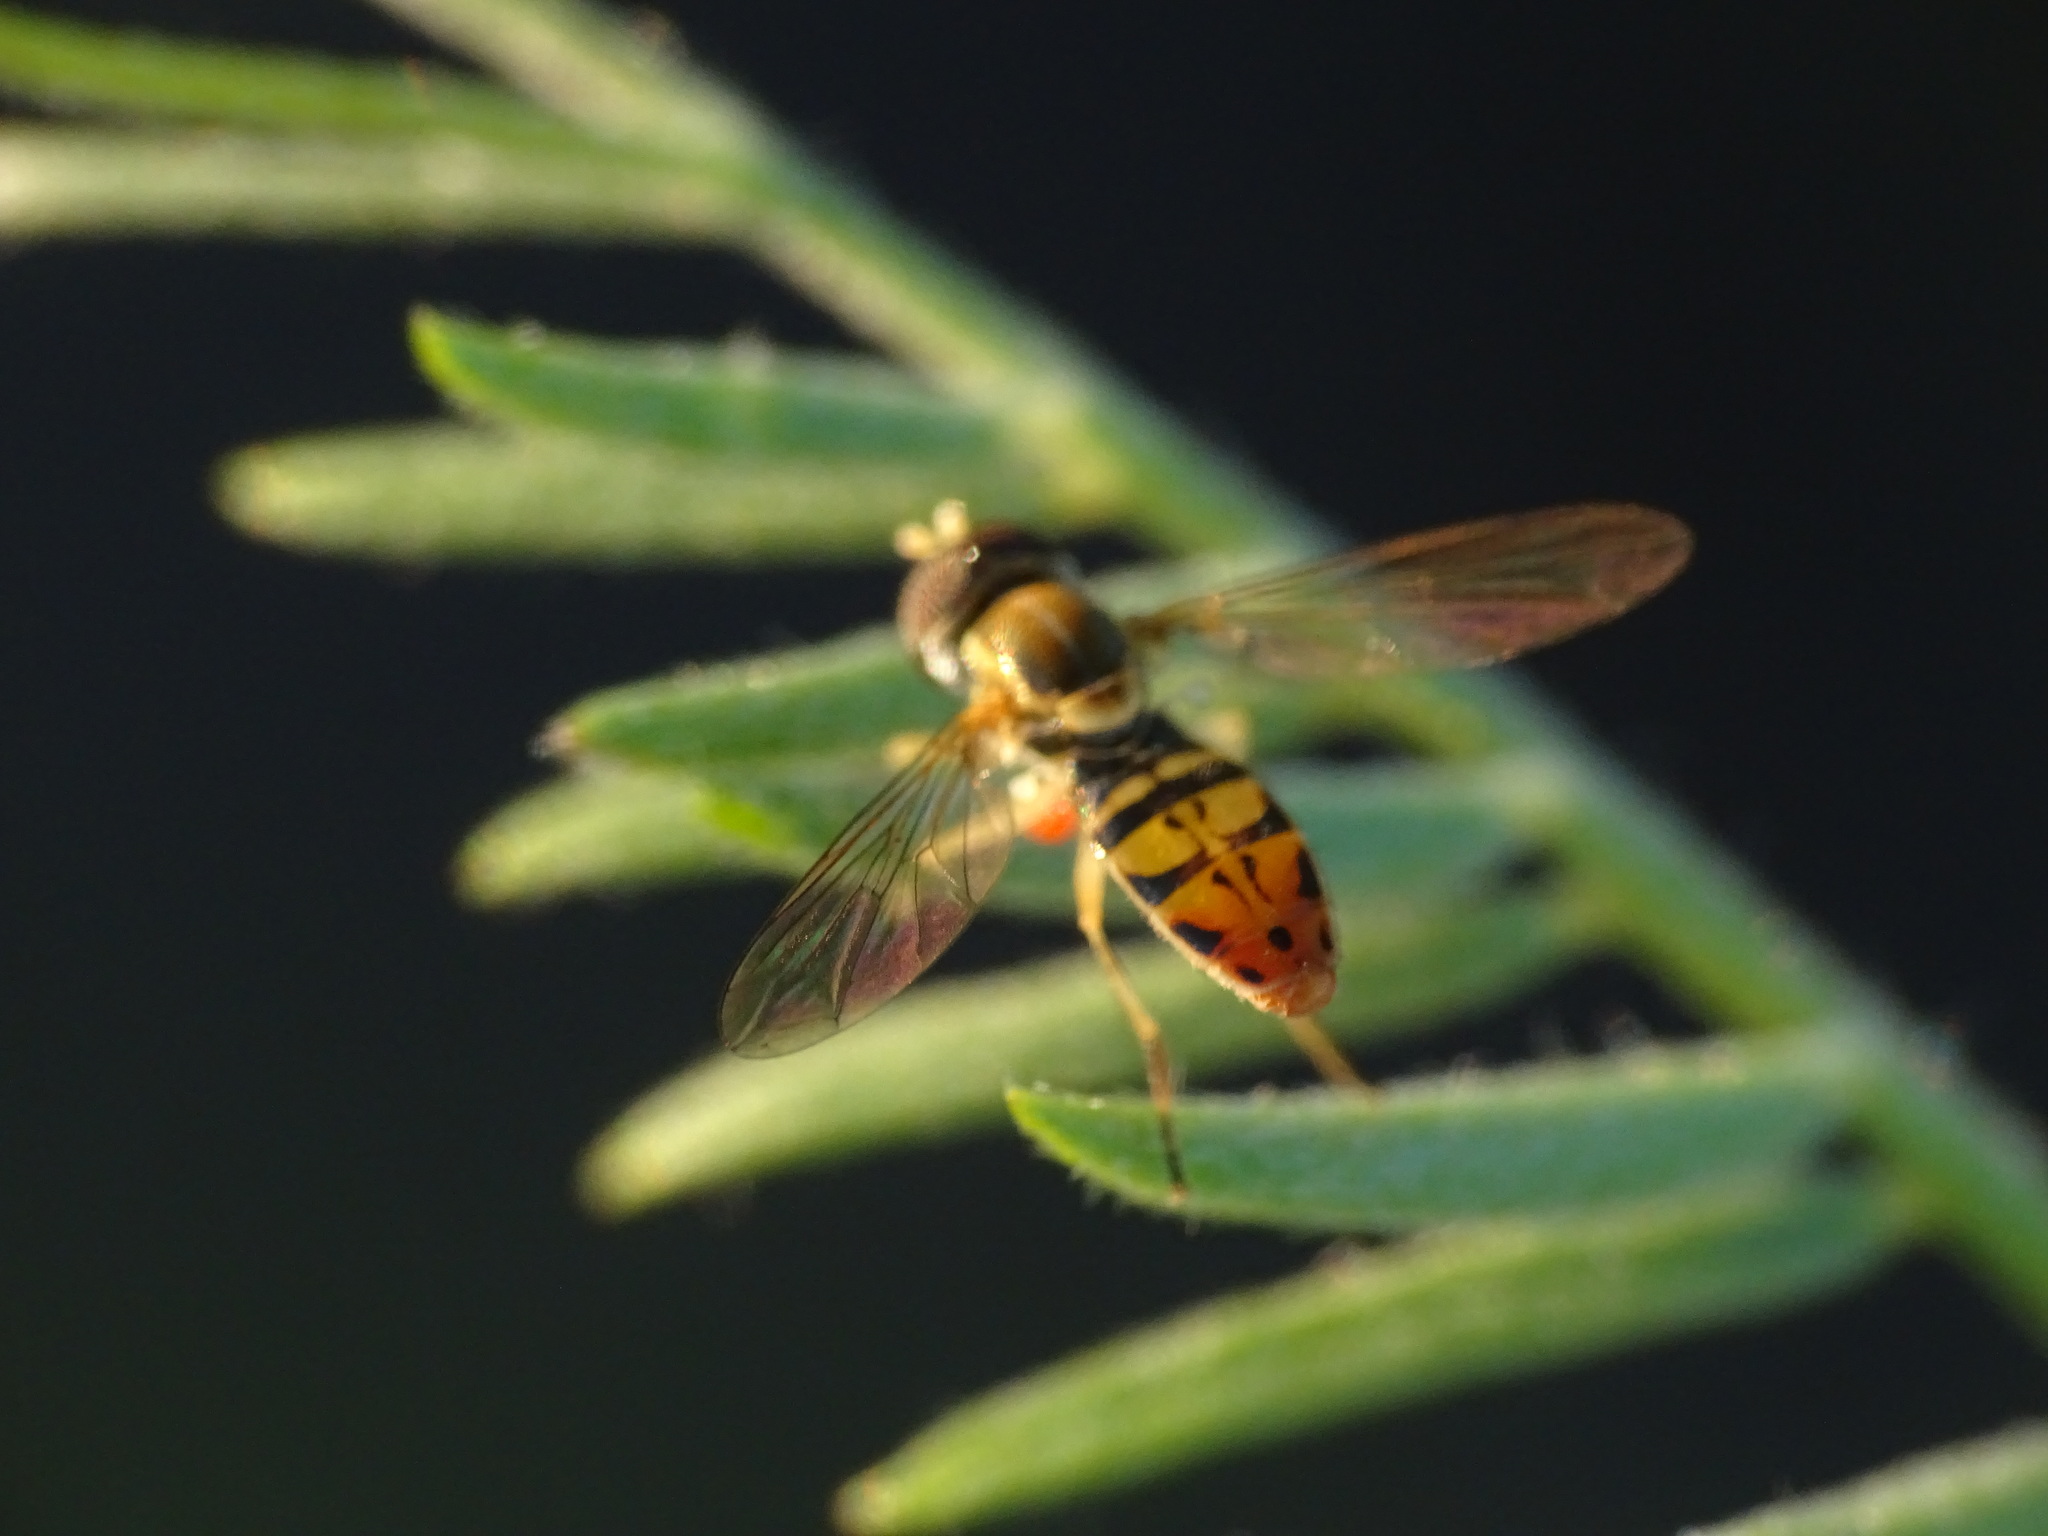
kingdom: Animalia
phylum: Arthropoda
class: Insecta
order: Diptera
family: Syrphidae
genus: Toxomerus
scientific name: Toxomerus marginatus
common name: Syrphid fly
